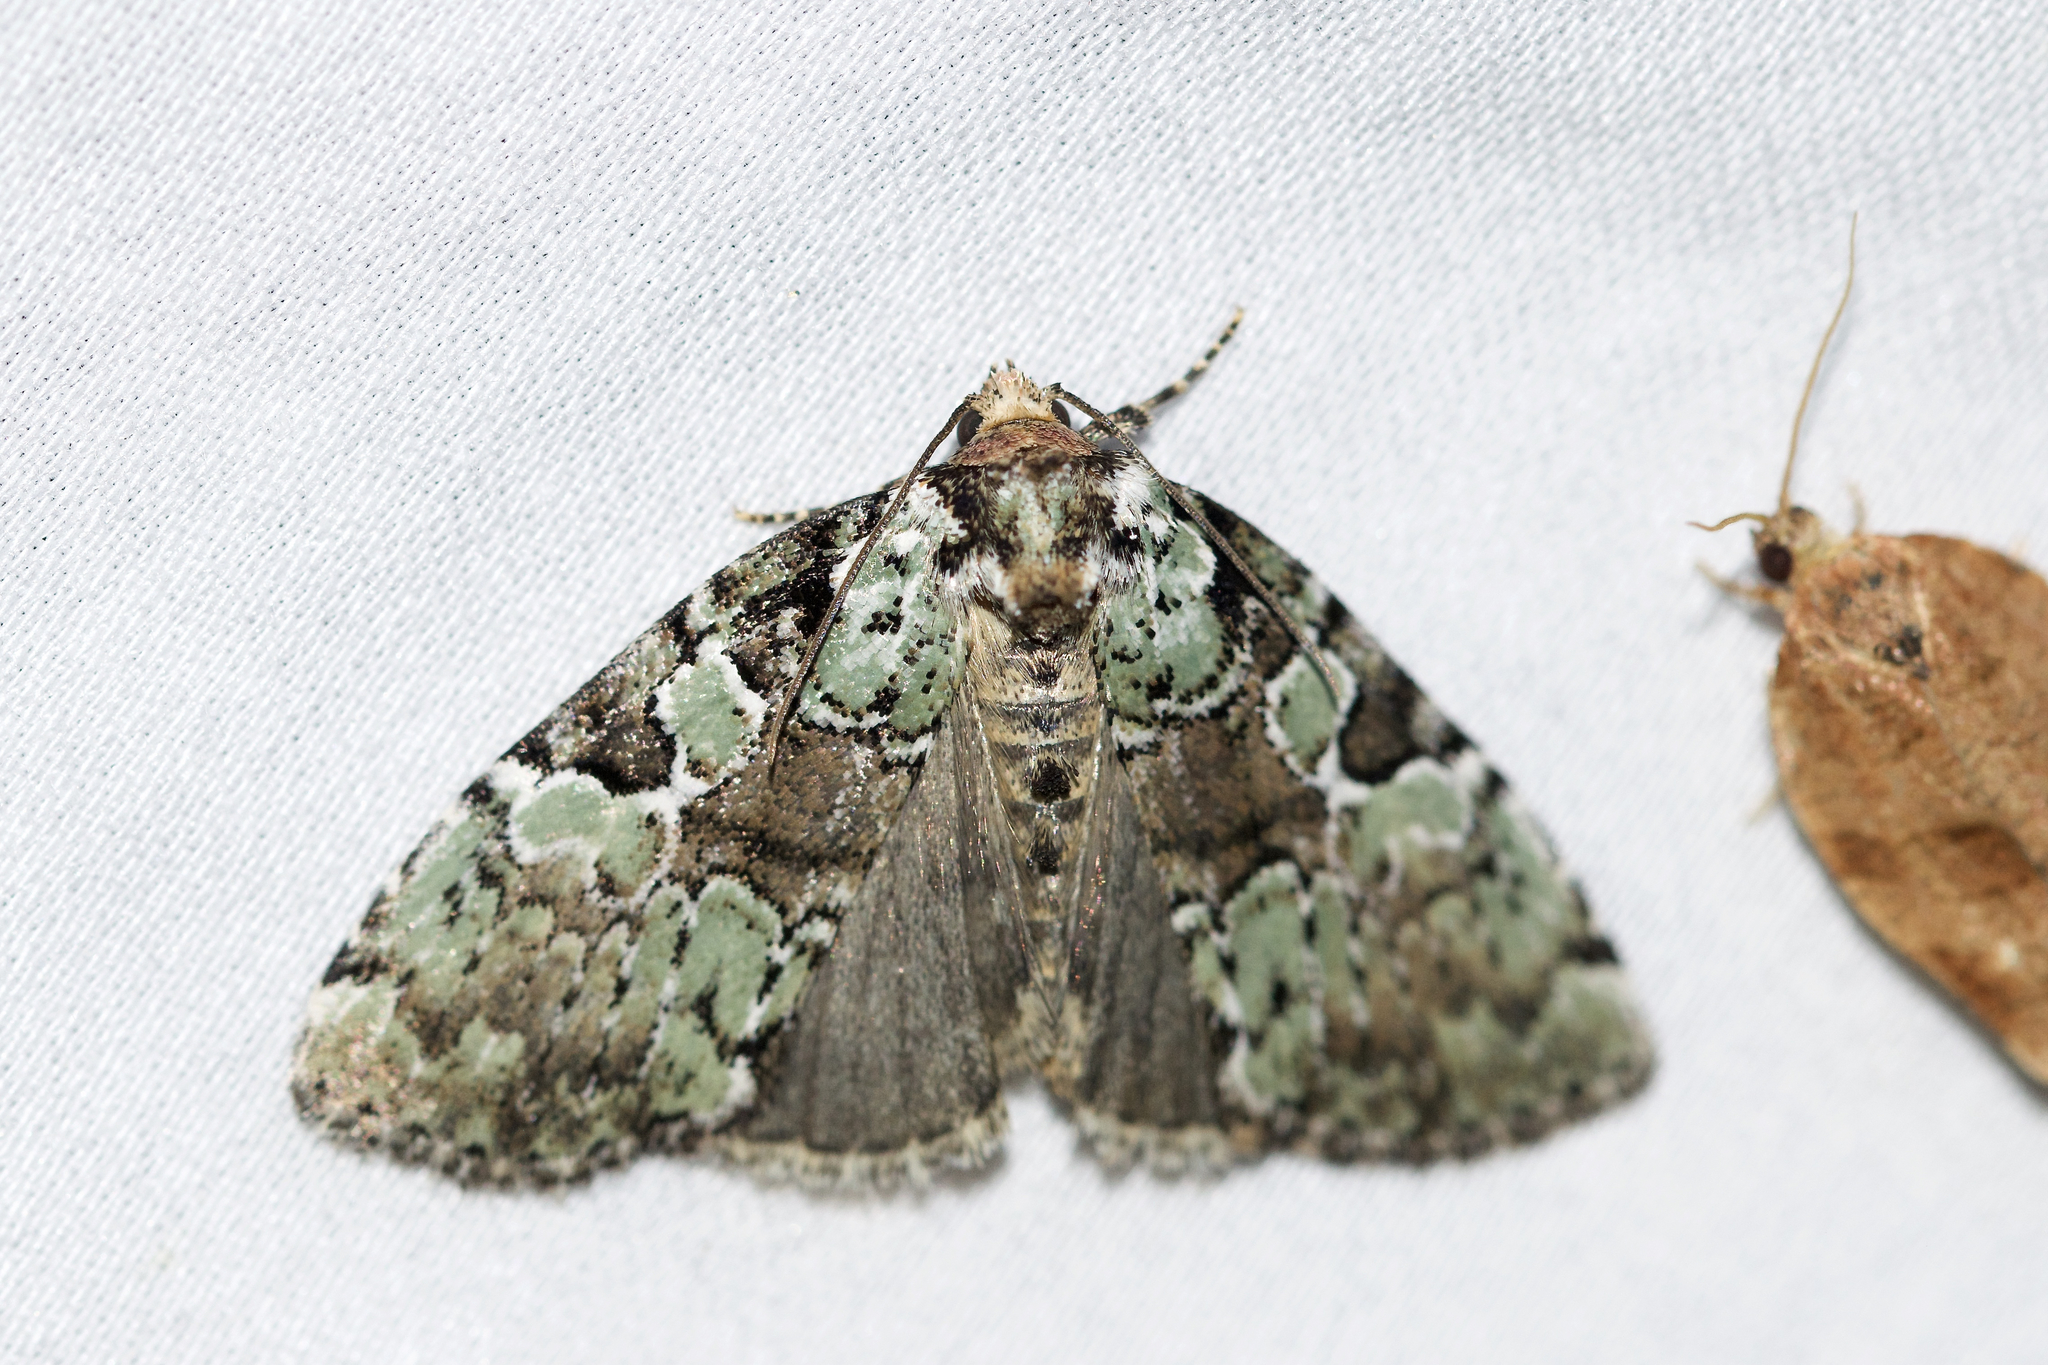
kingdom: Animalia
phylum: Arthropoda
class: Insecta
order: Lepidoptera
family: Noctuidae
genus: Leuconycta
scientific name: Leuconycta lepidula
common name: Marbled-green leuconycta moth
